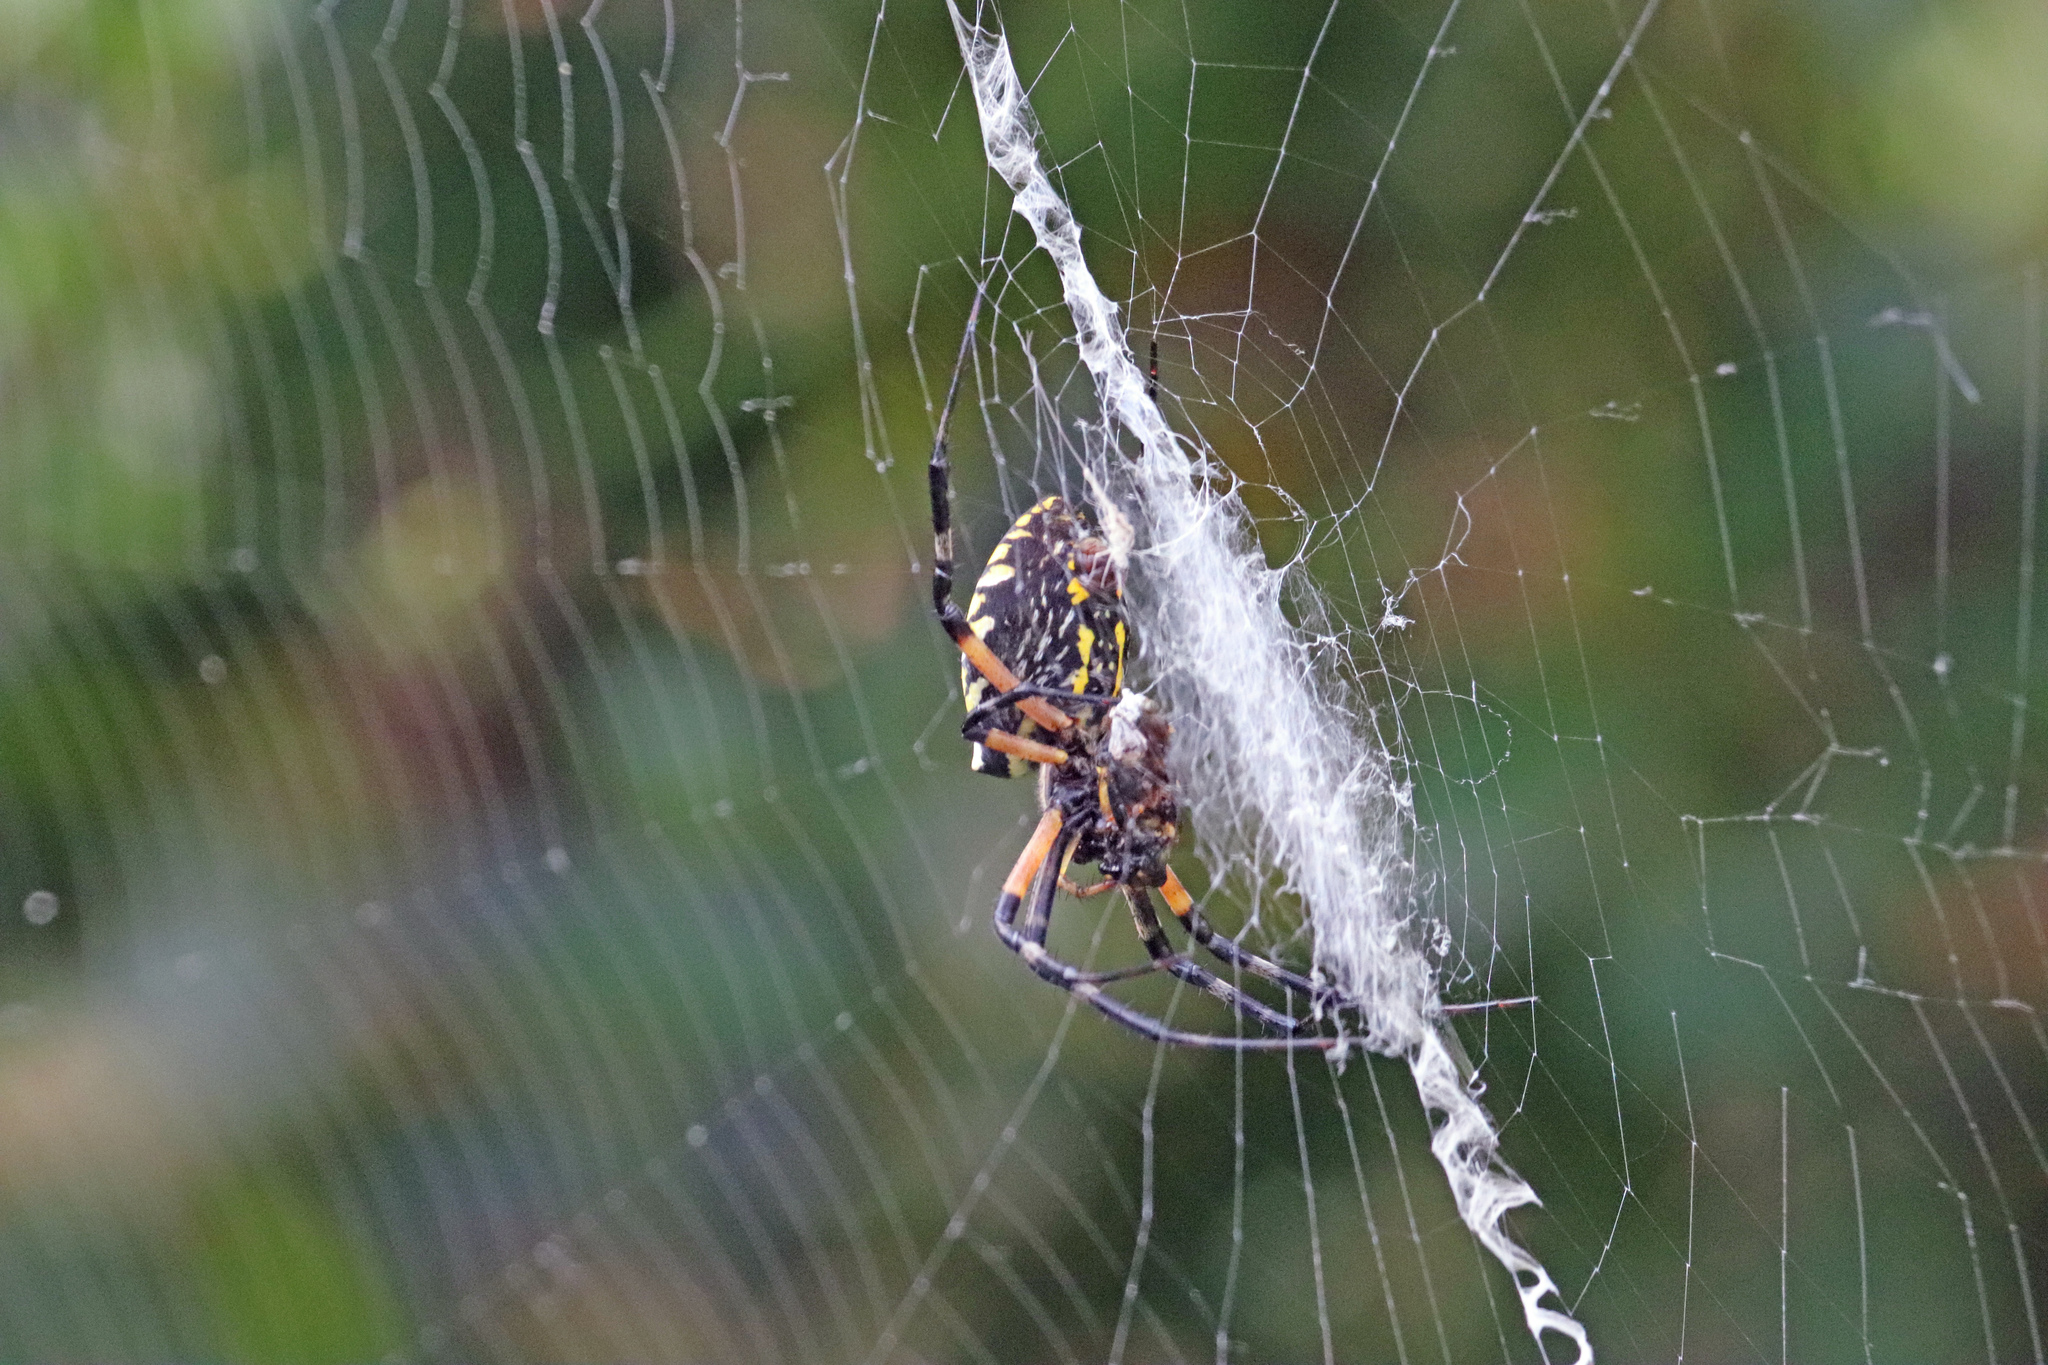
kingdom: Animalia
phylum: Arthropoda
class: Arachnida
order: Araneae
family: Araneidae
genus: Argiope
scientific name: Argiope aurantia
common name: Orb weavers
